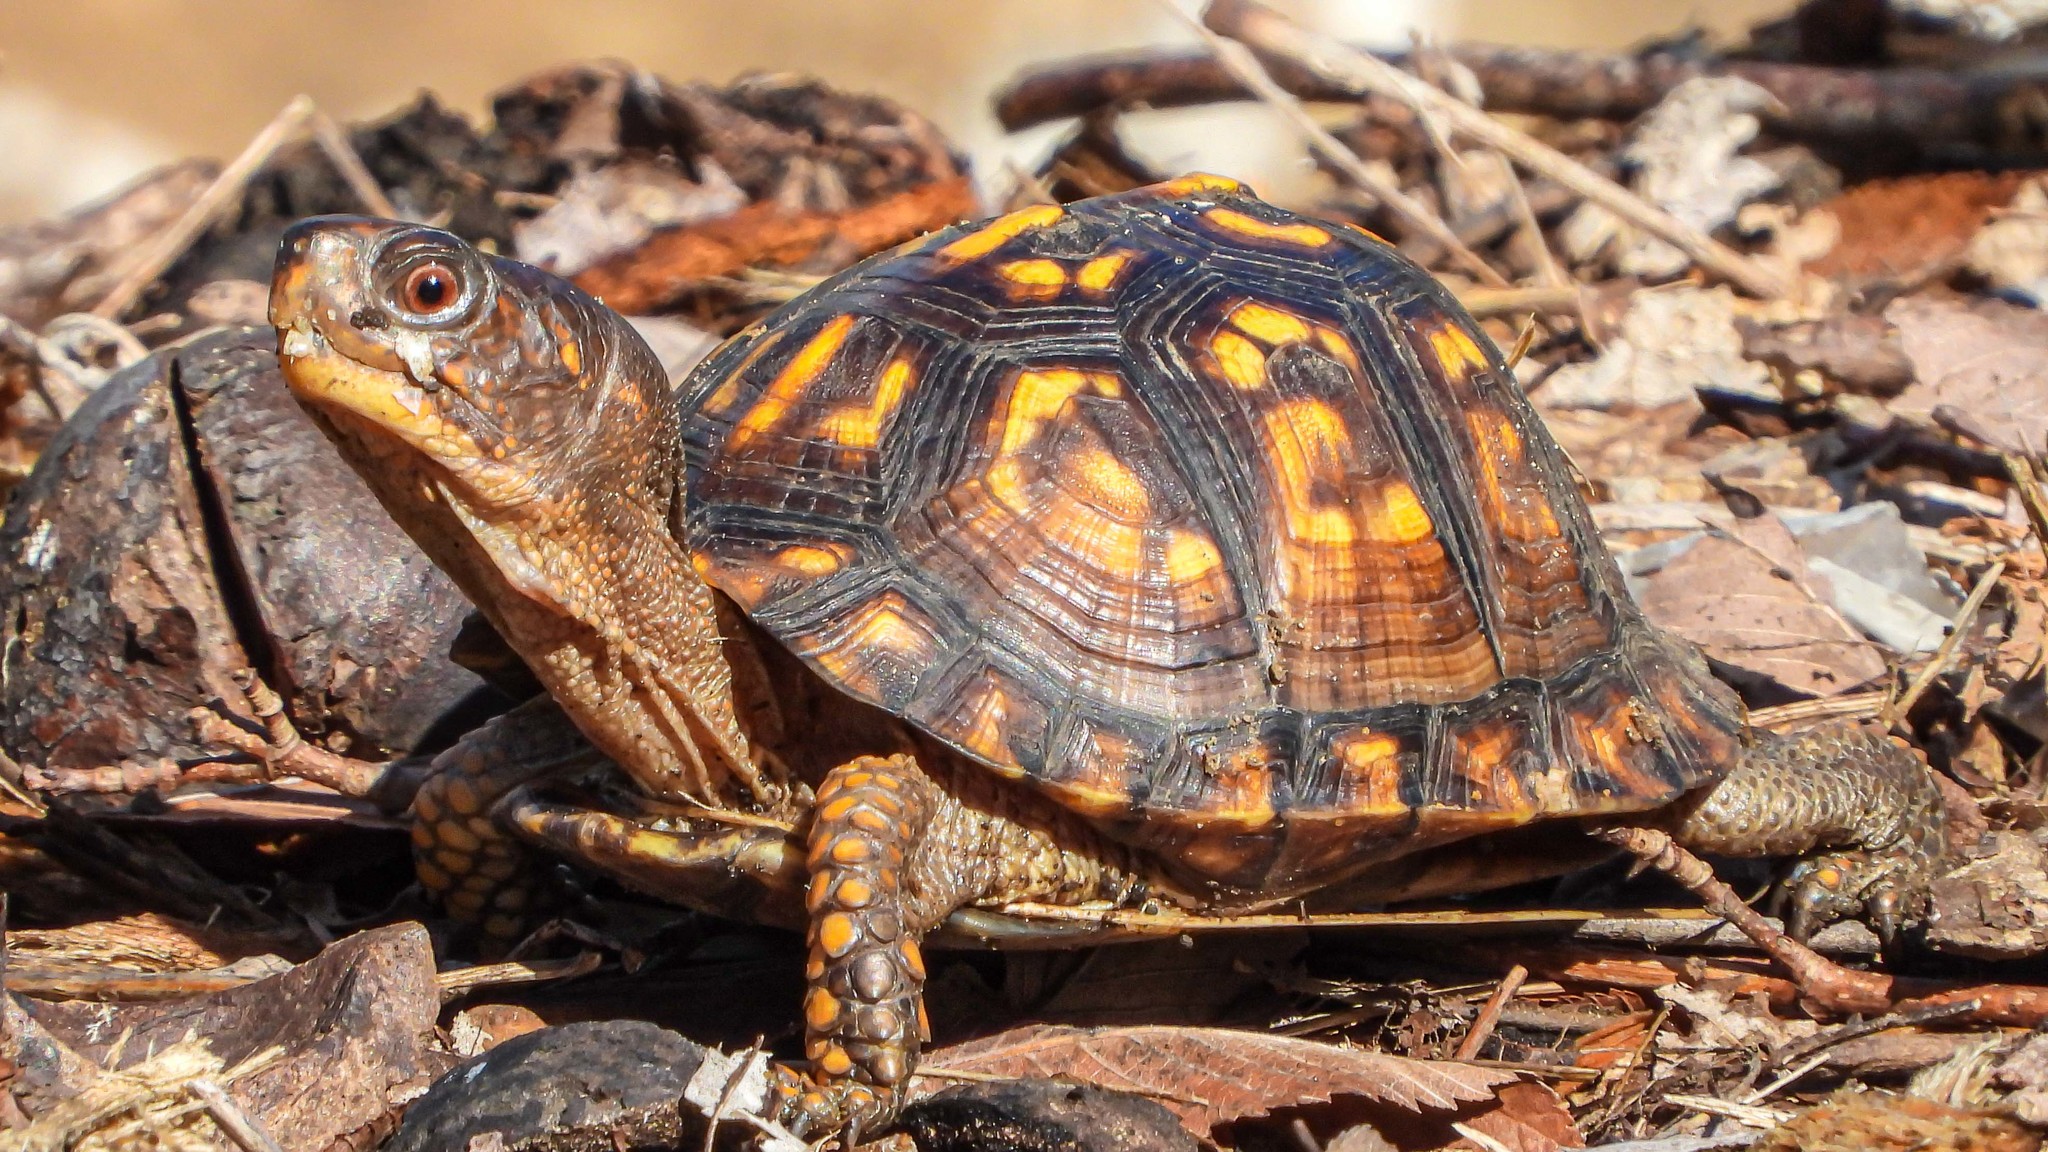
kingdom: Animalia
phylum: Chordata
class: Testudines
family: Emydidae
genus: Terrapene
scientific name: Terrapene carolina
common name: Common box turtle
